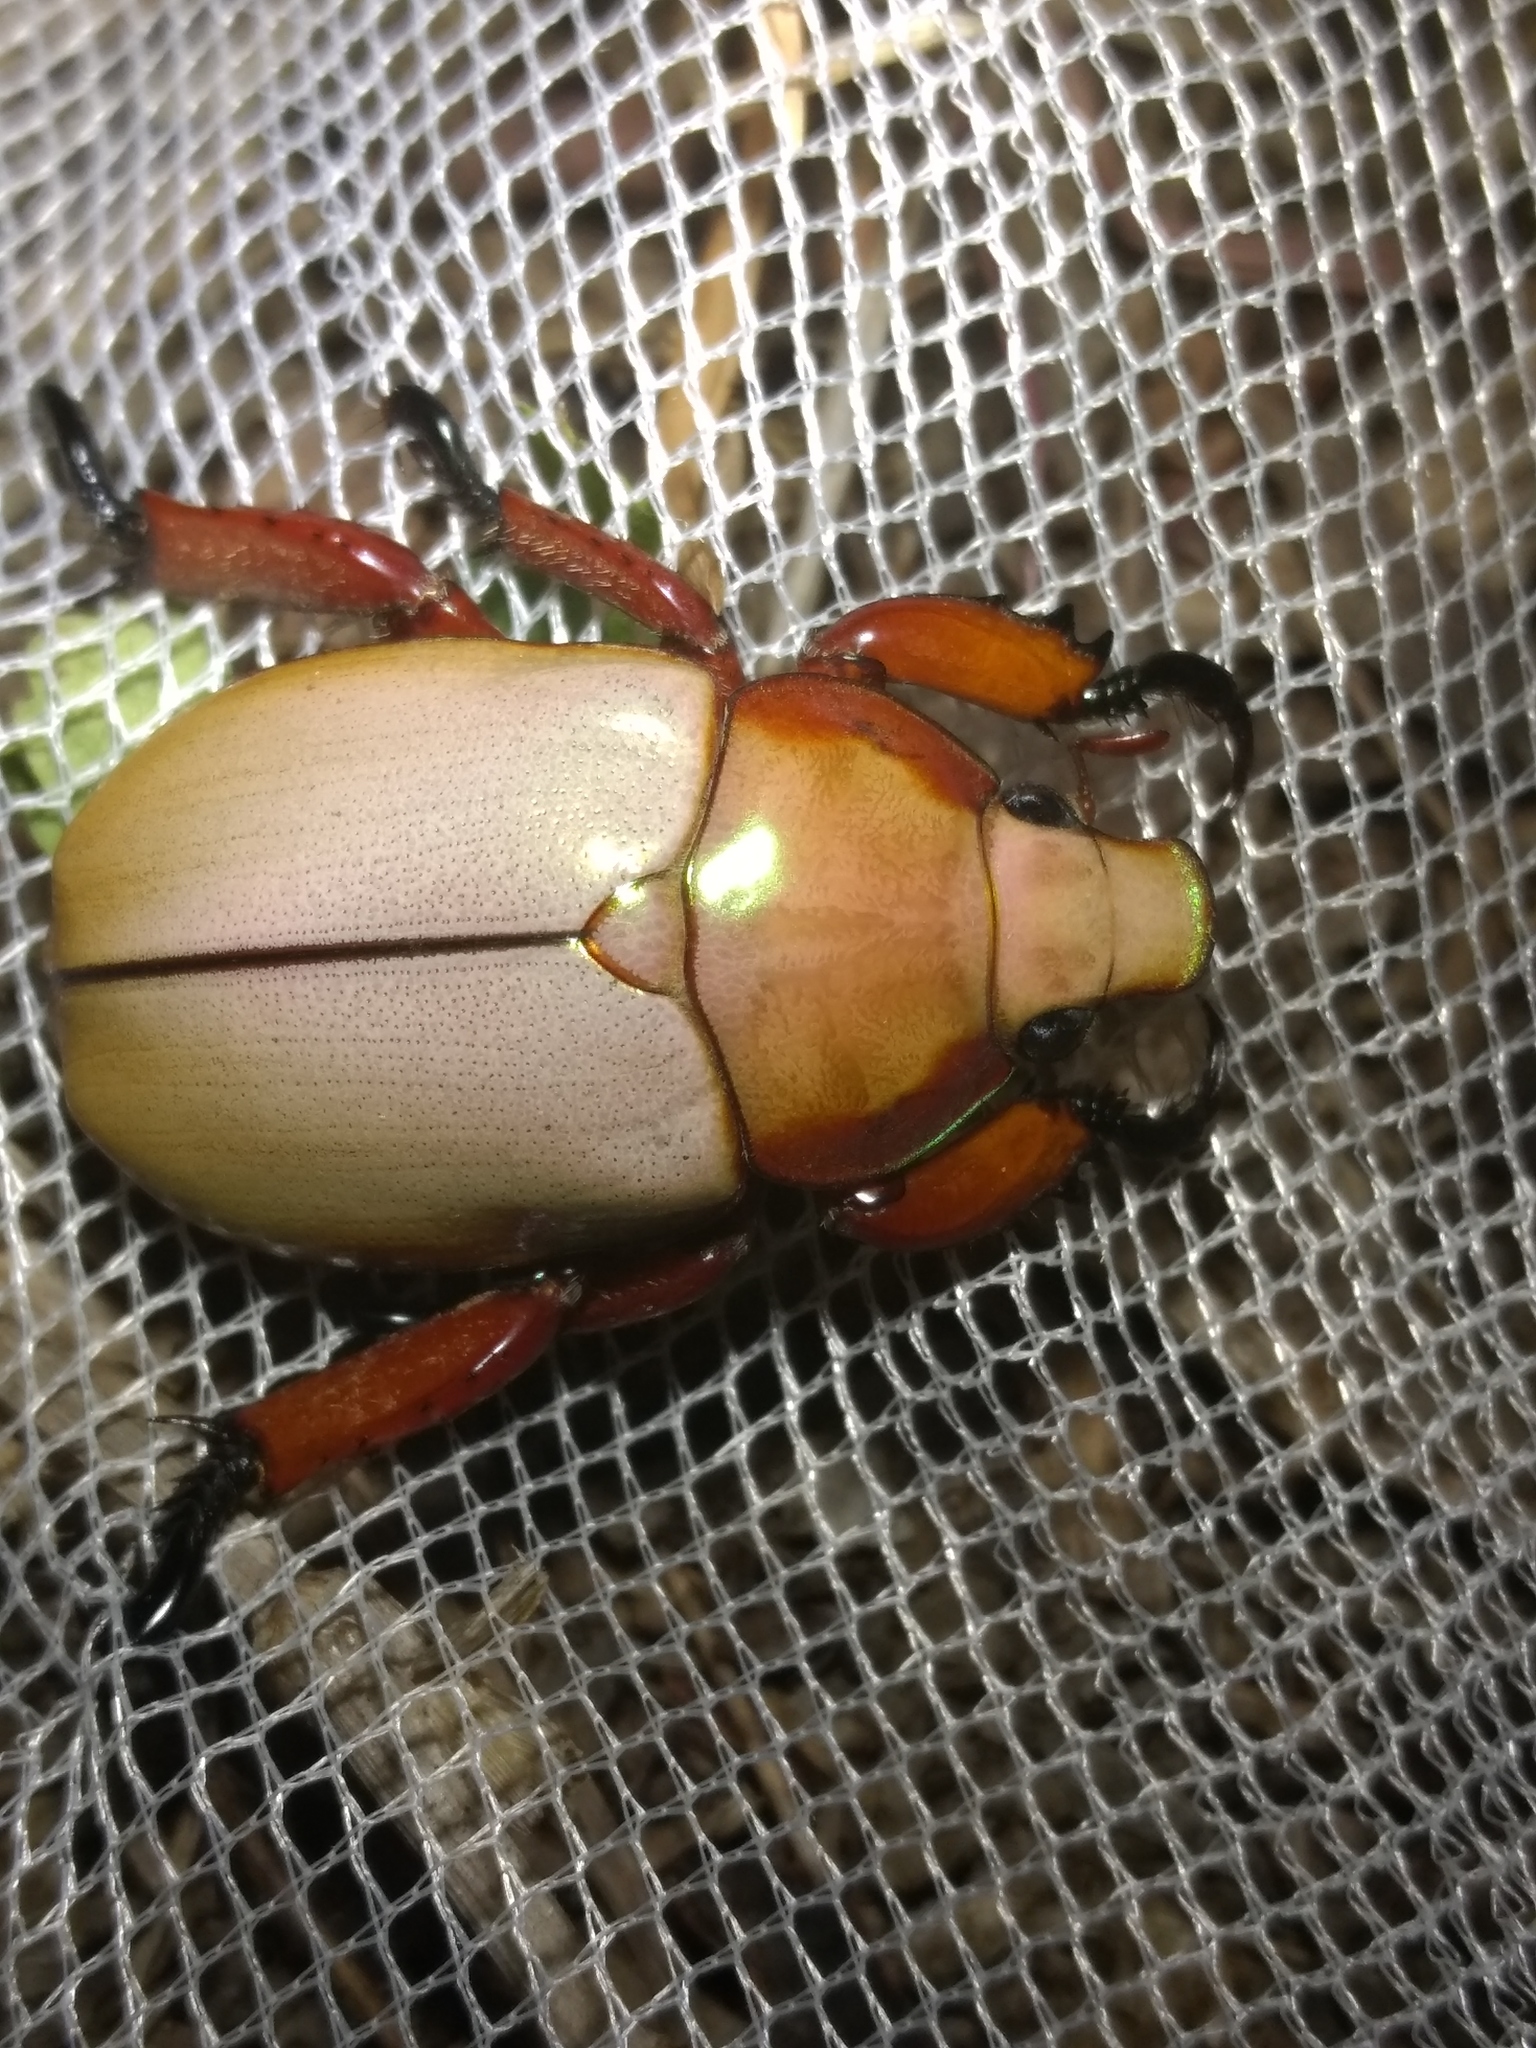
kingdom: Animalia
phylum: Arthropoda
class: Insecta
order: Coleoptera
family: Scarabaeidae
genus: Anoplognathus
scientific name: Anoplognathus montanus
